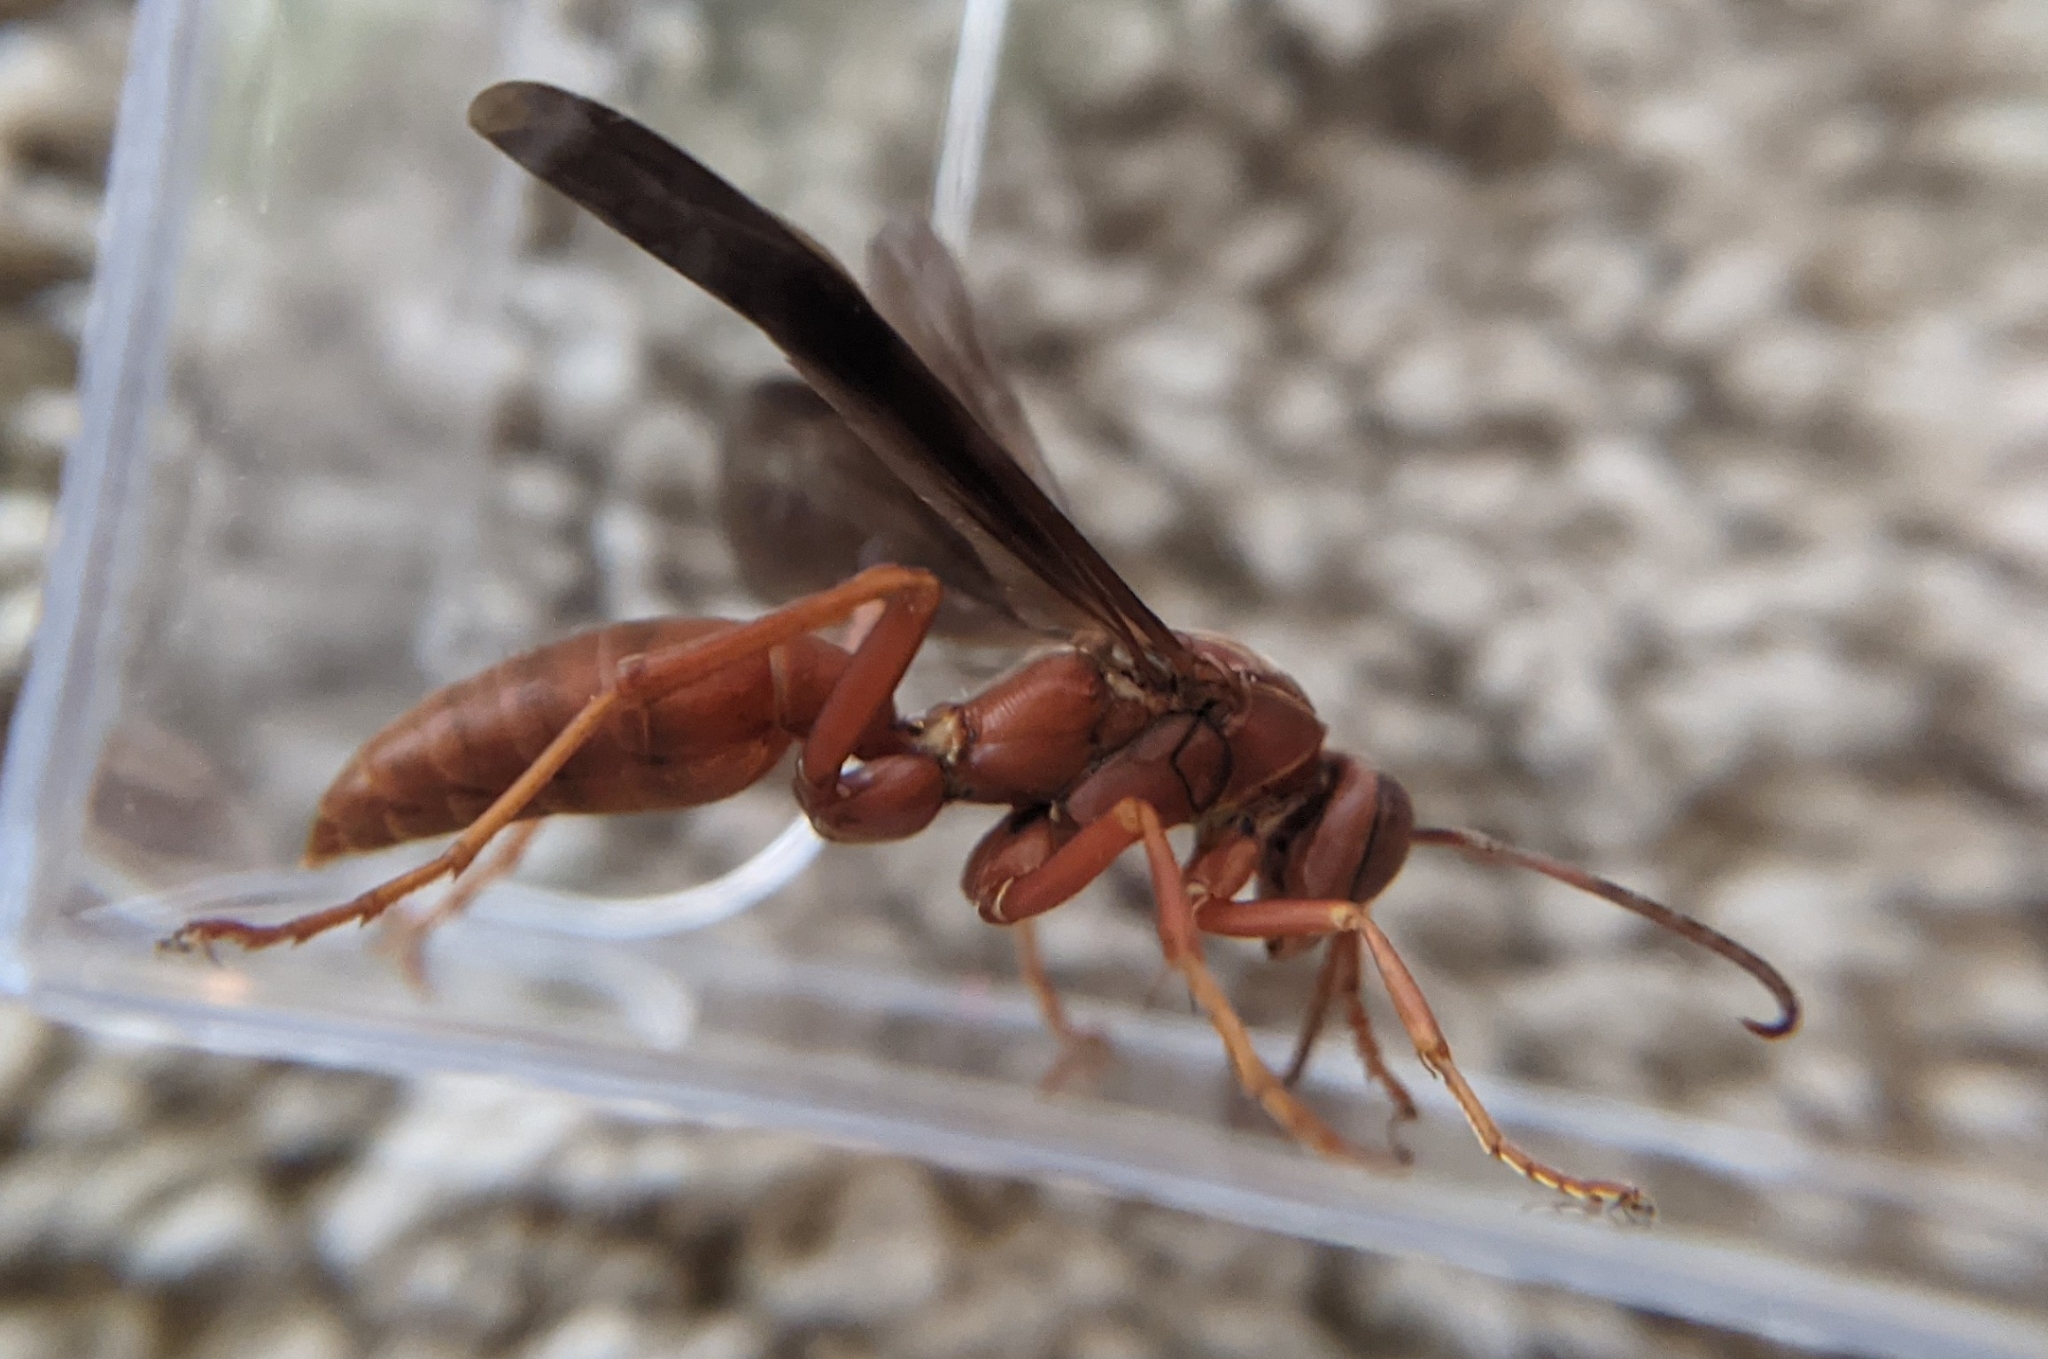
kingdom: Animalia
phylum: Arthropoda
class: Insecta
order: Hymenoptera
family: Eumenidae
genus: Polistes
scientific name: Polistes carolina
